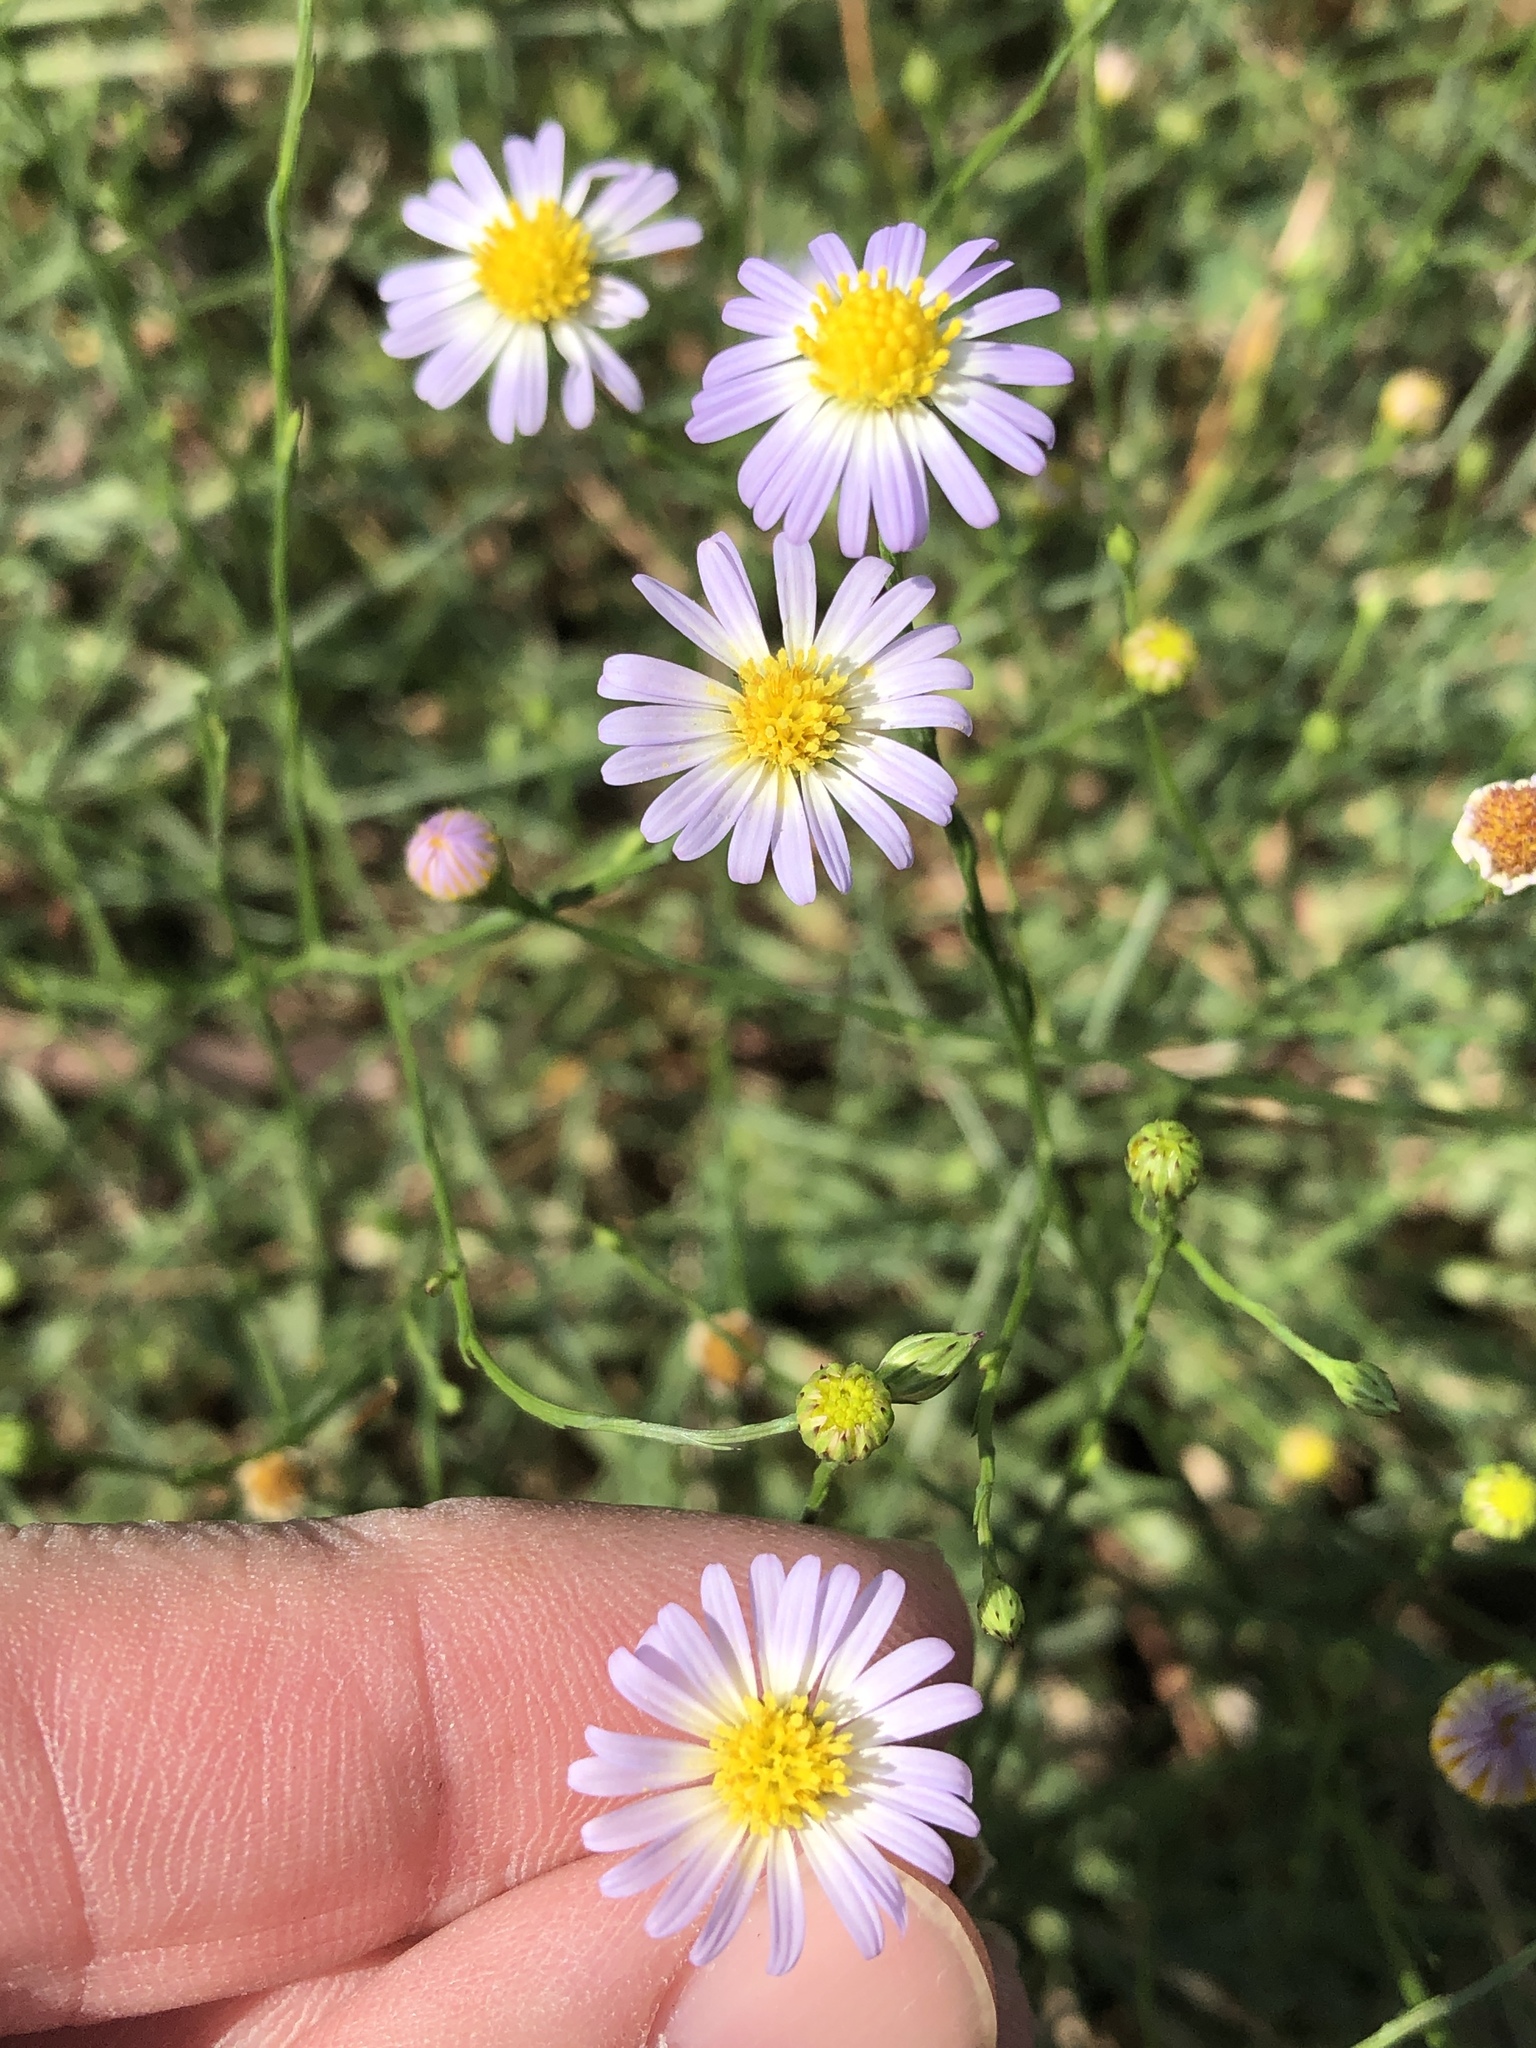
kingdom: Plantae
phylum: Tracheophyta
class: Magnoliopsida
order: Asterales
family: Asteraceae
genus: Symphyotrichum
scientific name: Symphyotrichum divaricatum
